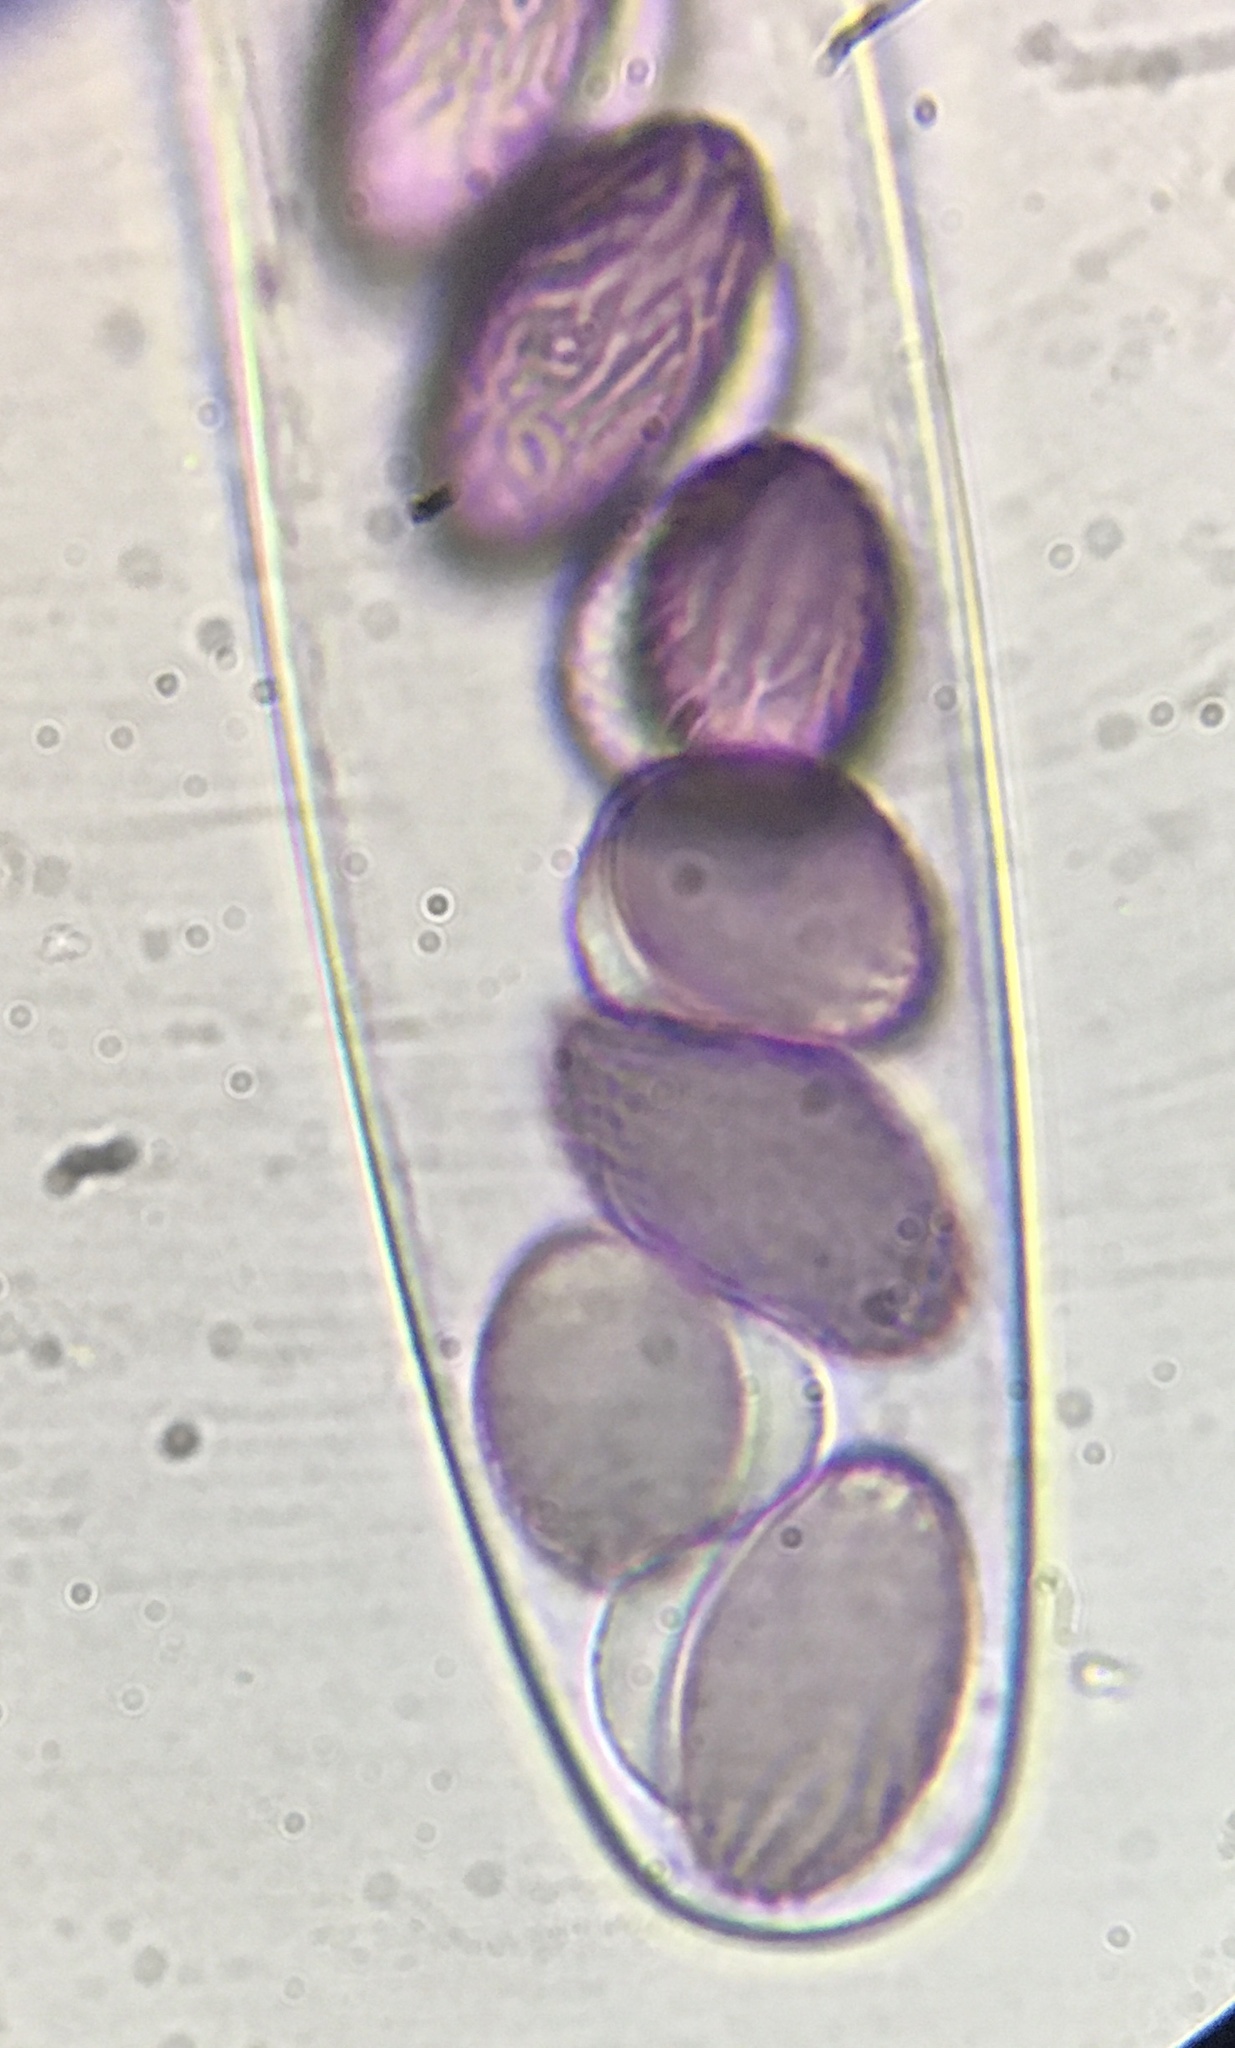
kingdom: Fungi
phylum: Ascomycota
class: Pezizomycetes
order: Pezizales
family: Ascobolaceae
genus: Ascobolus
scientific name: Ascobolus albidus
